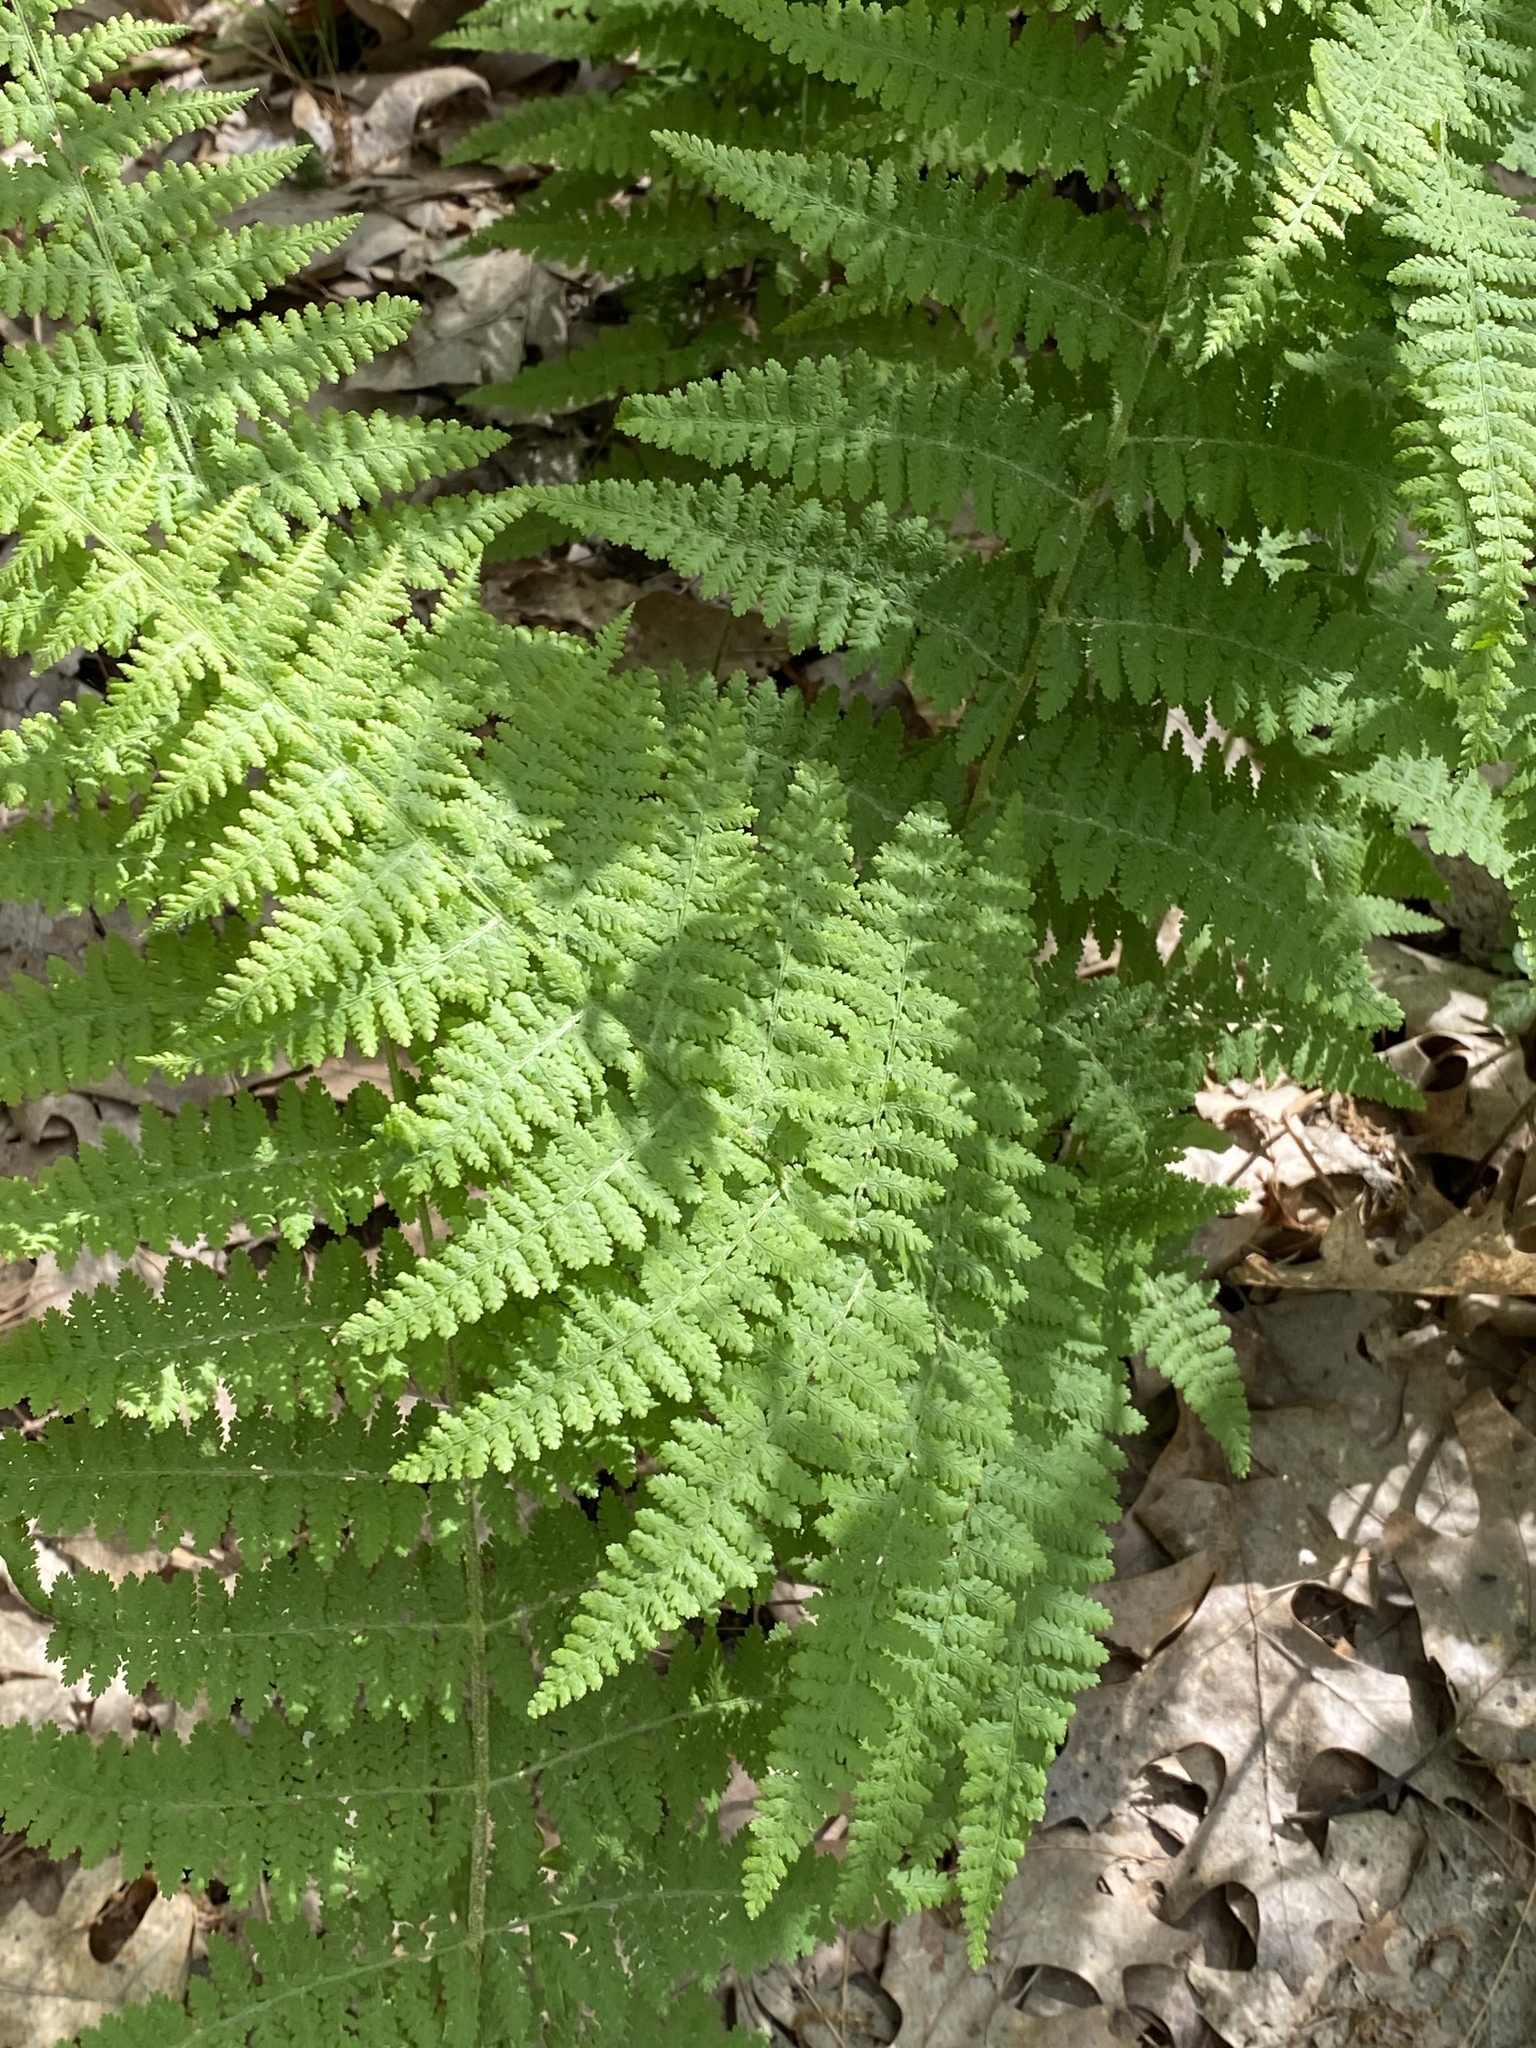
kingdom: Plantae
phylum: Tracheophyta
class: Polypodiopsida
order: Polypodiales
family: Dennstaedtiaceae
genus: Sitobolium
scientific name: Sitobolium punctilobum
